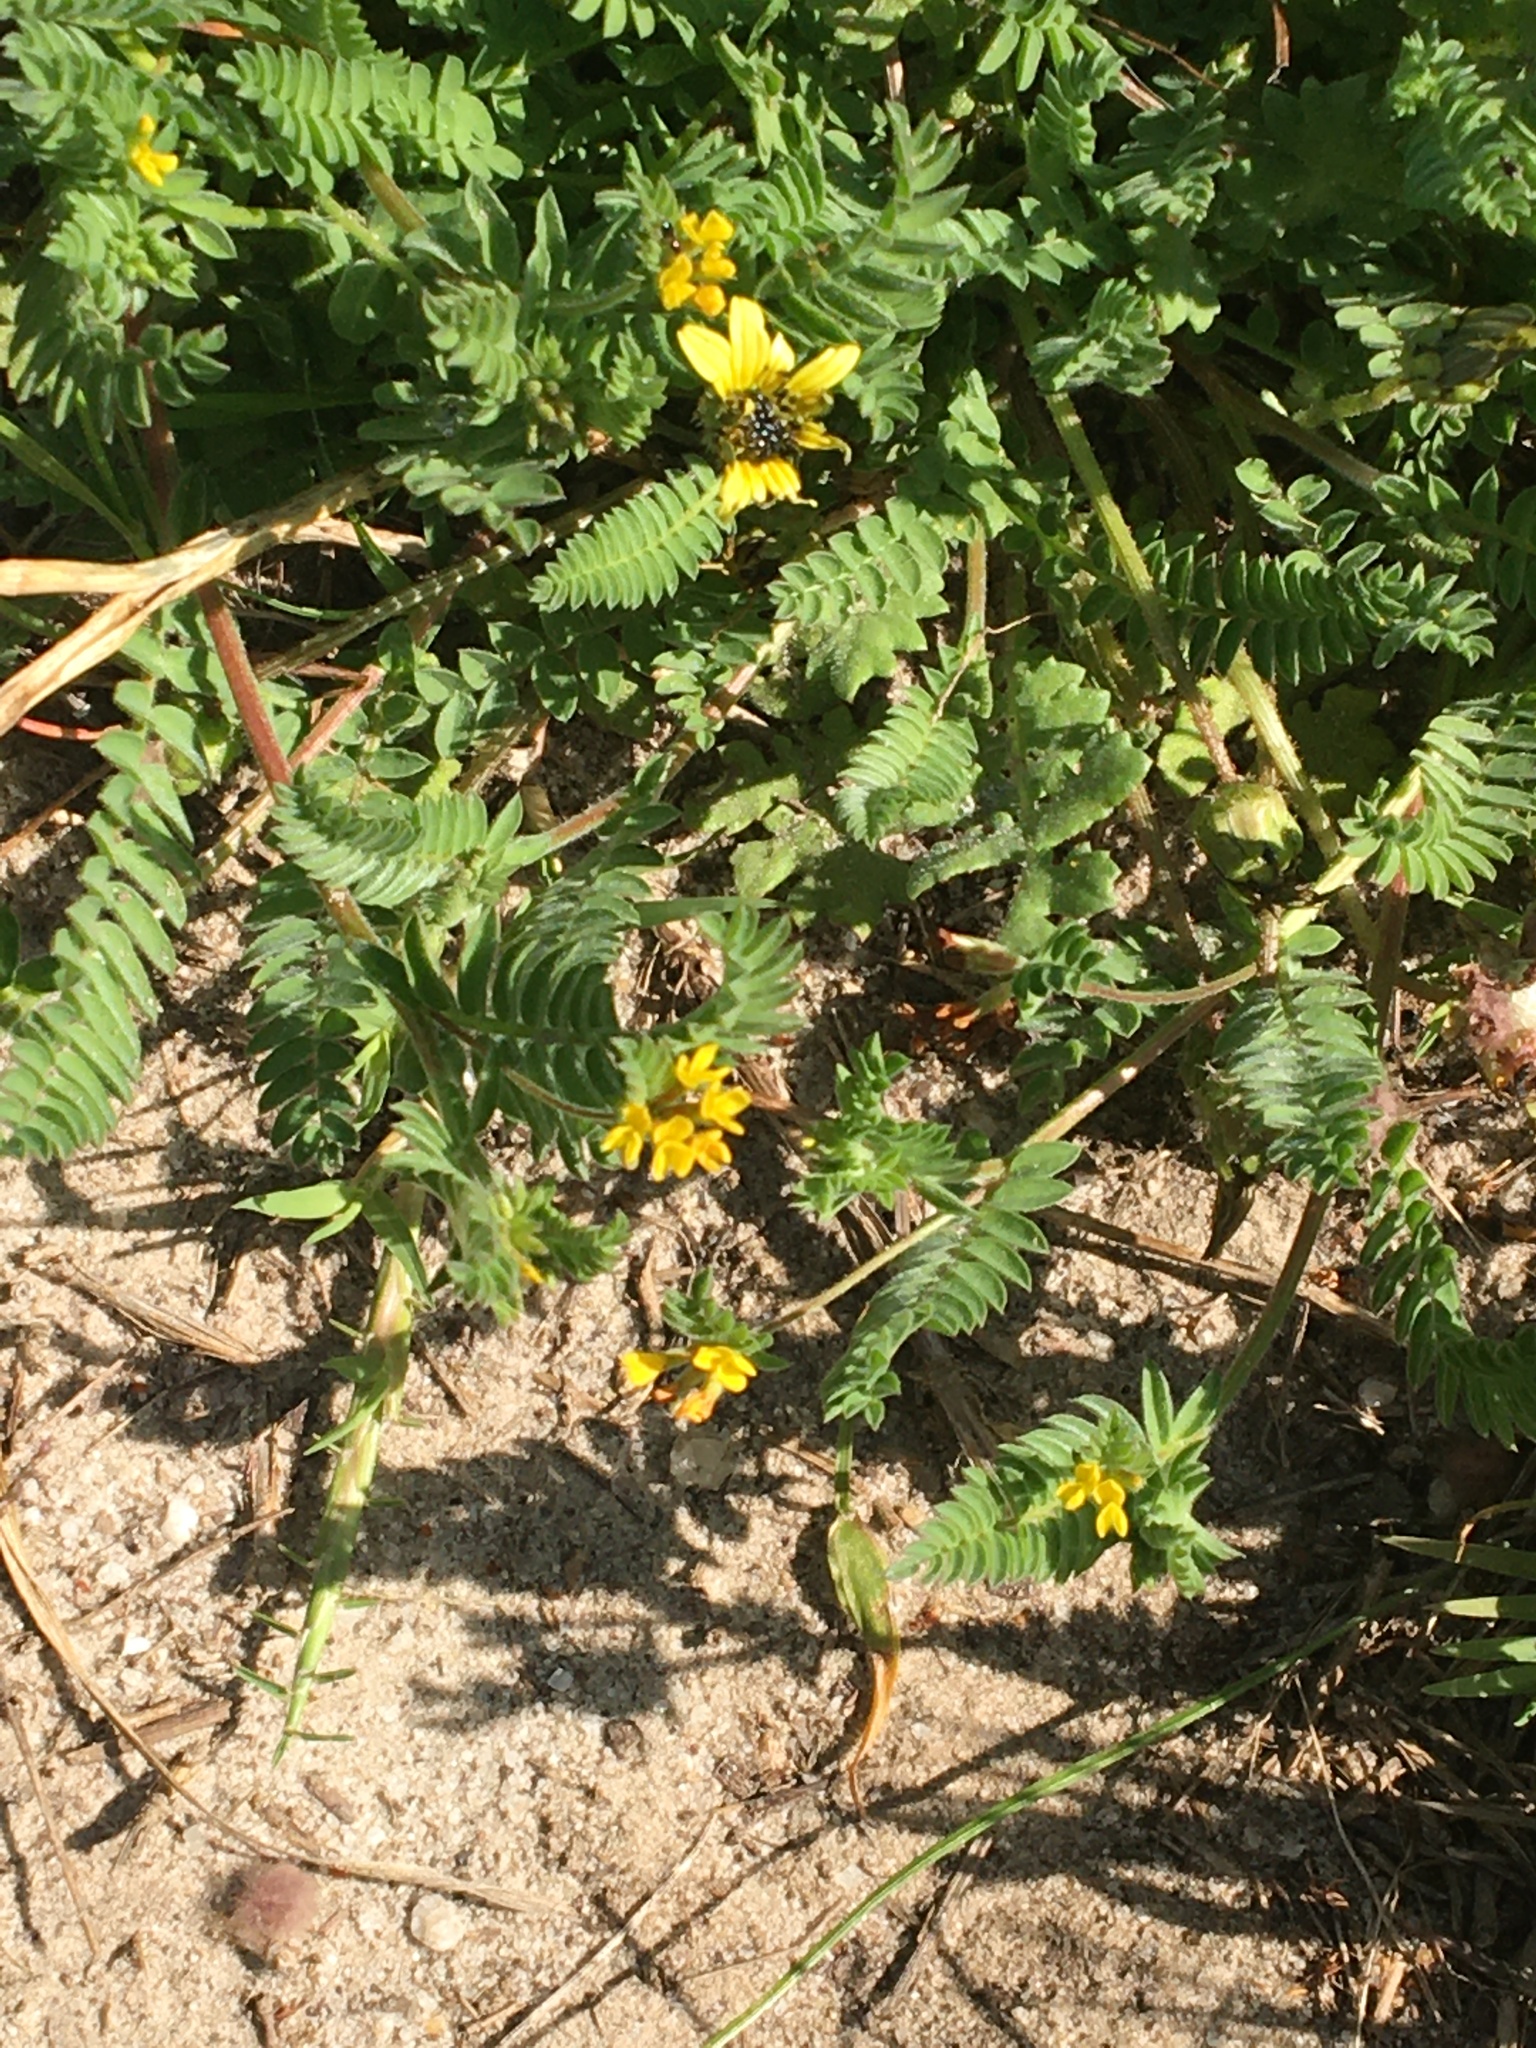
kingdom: Plantae
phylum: Tracheophyta
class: Magnoliopsida
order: Fabales
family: Fabaceae
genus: Ornithopus
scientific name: Ornithopus compressus
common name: Yellow serradella
